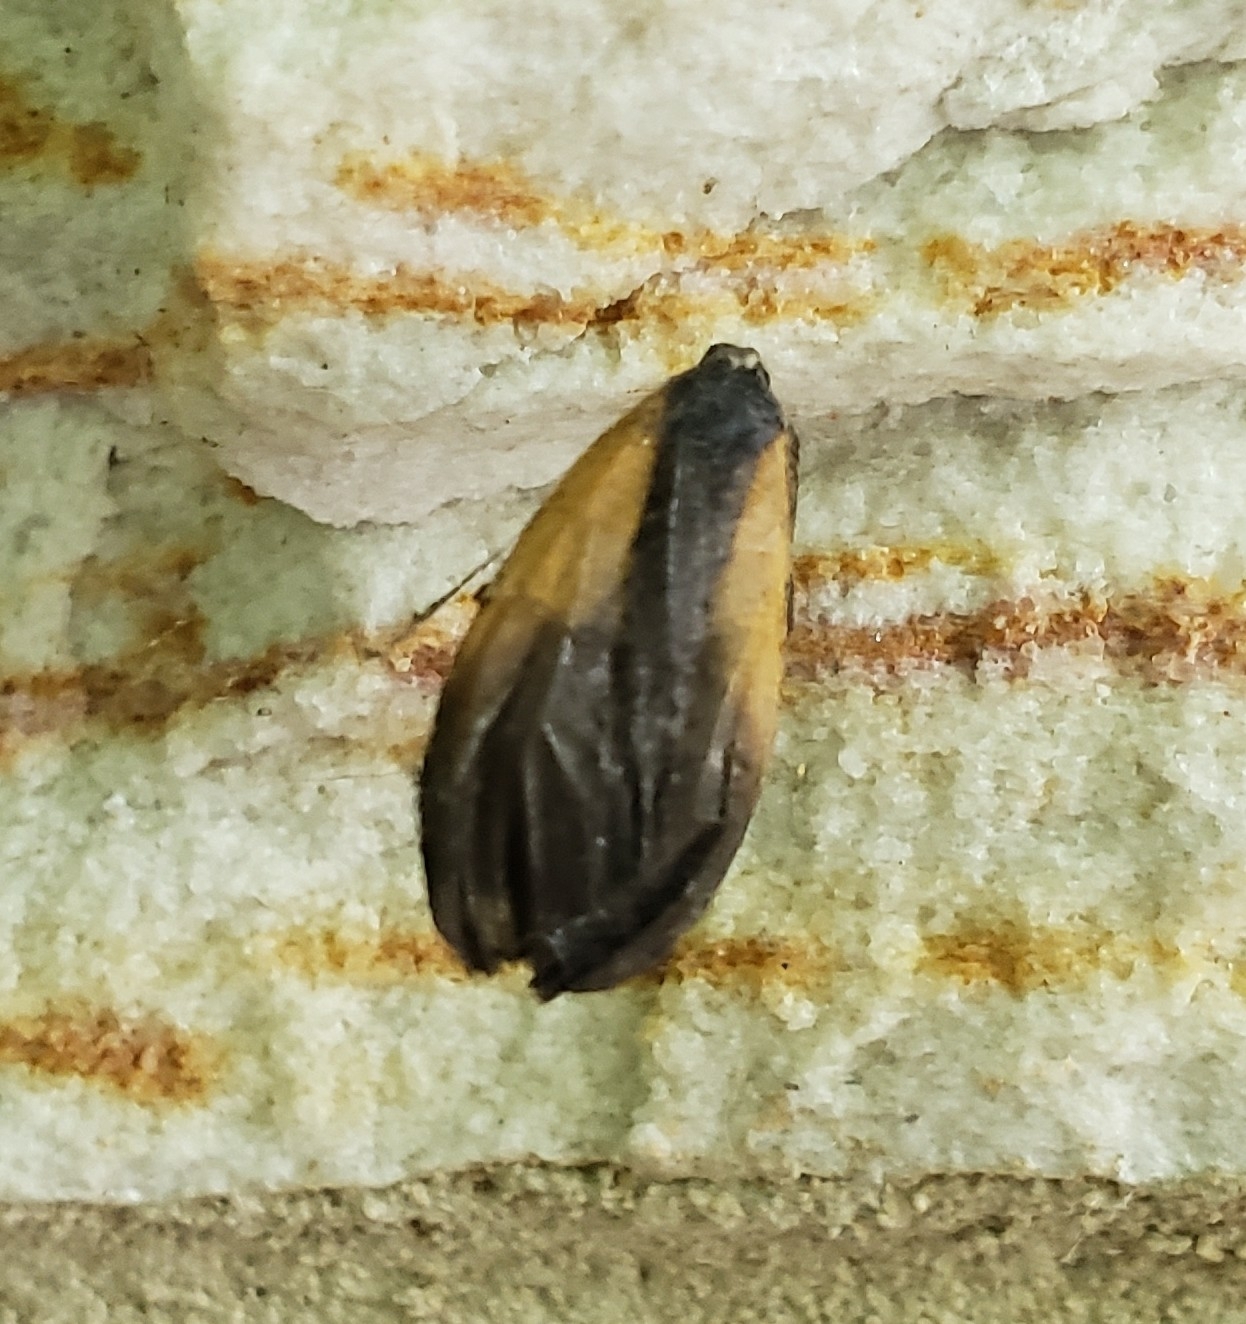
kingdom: Animalia
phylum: Arthropoda
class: Insecta
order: Lepidoptera
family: Zygaenidae
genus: Malthaca
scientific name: Malthaca dimidiata
